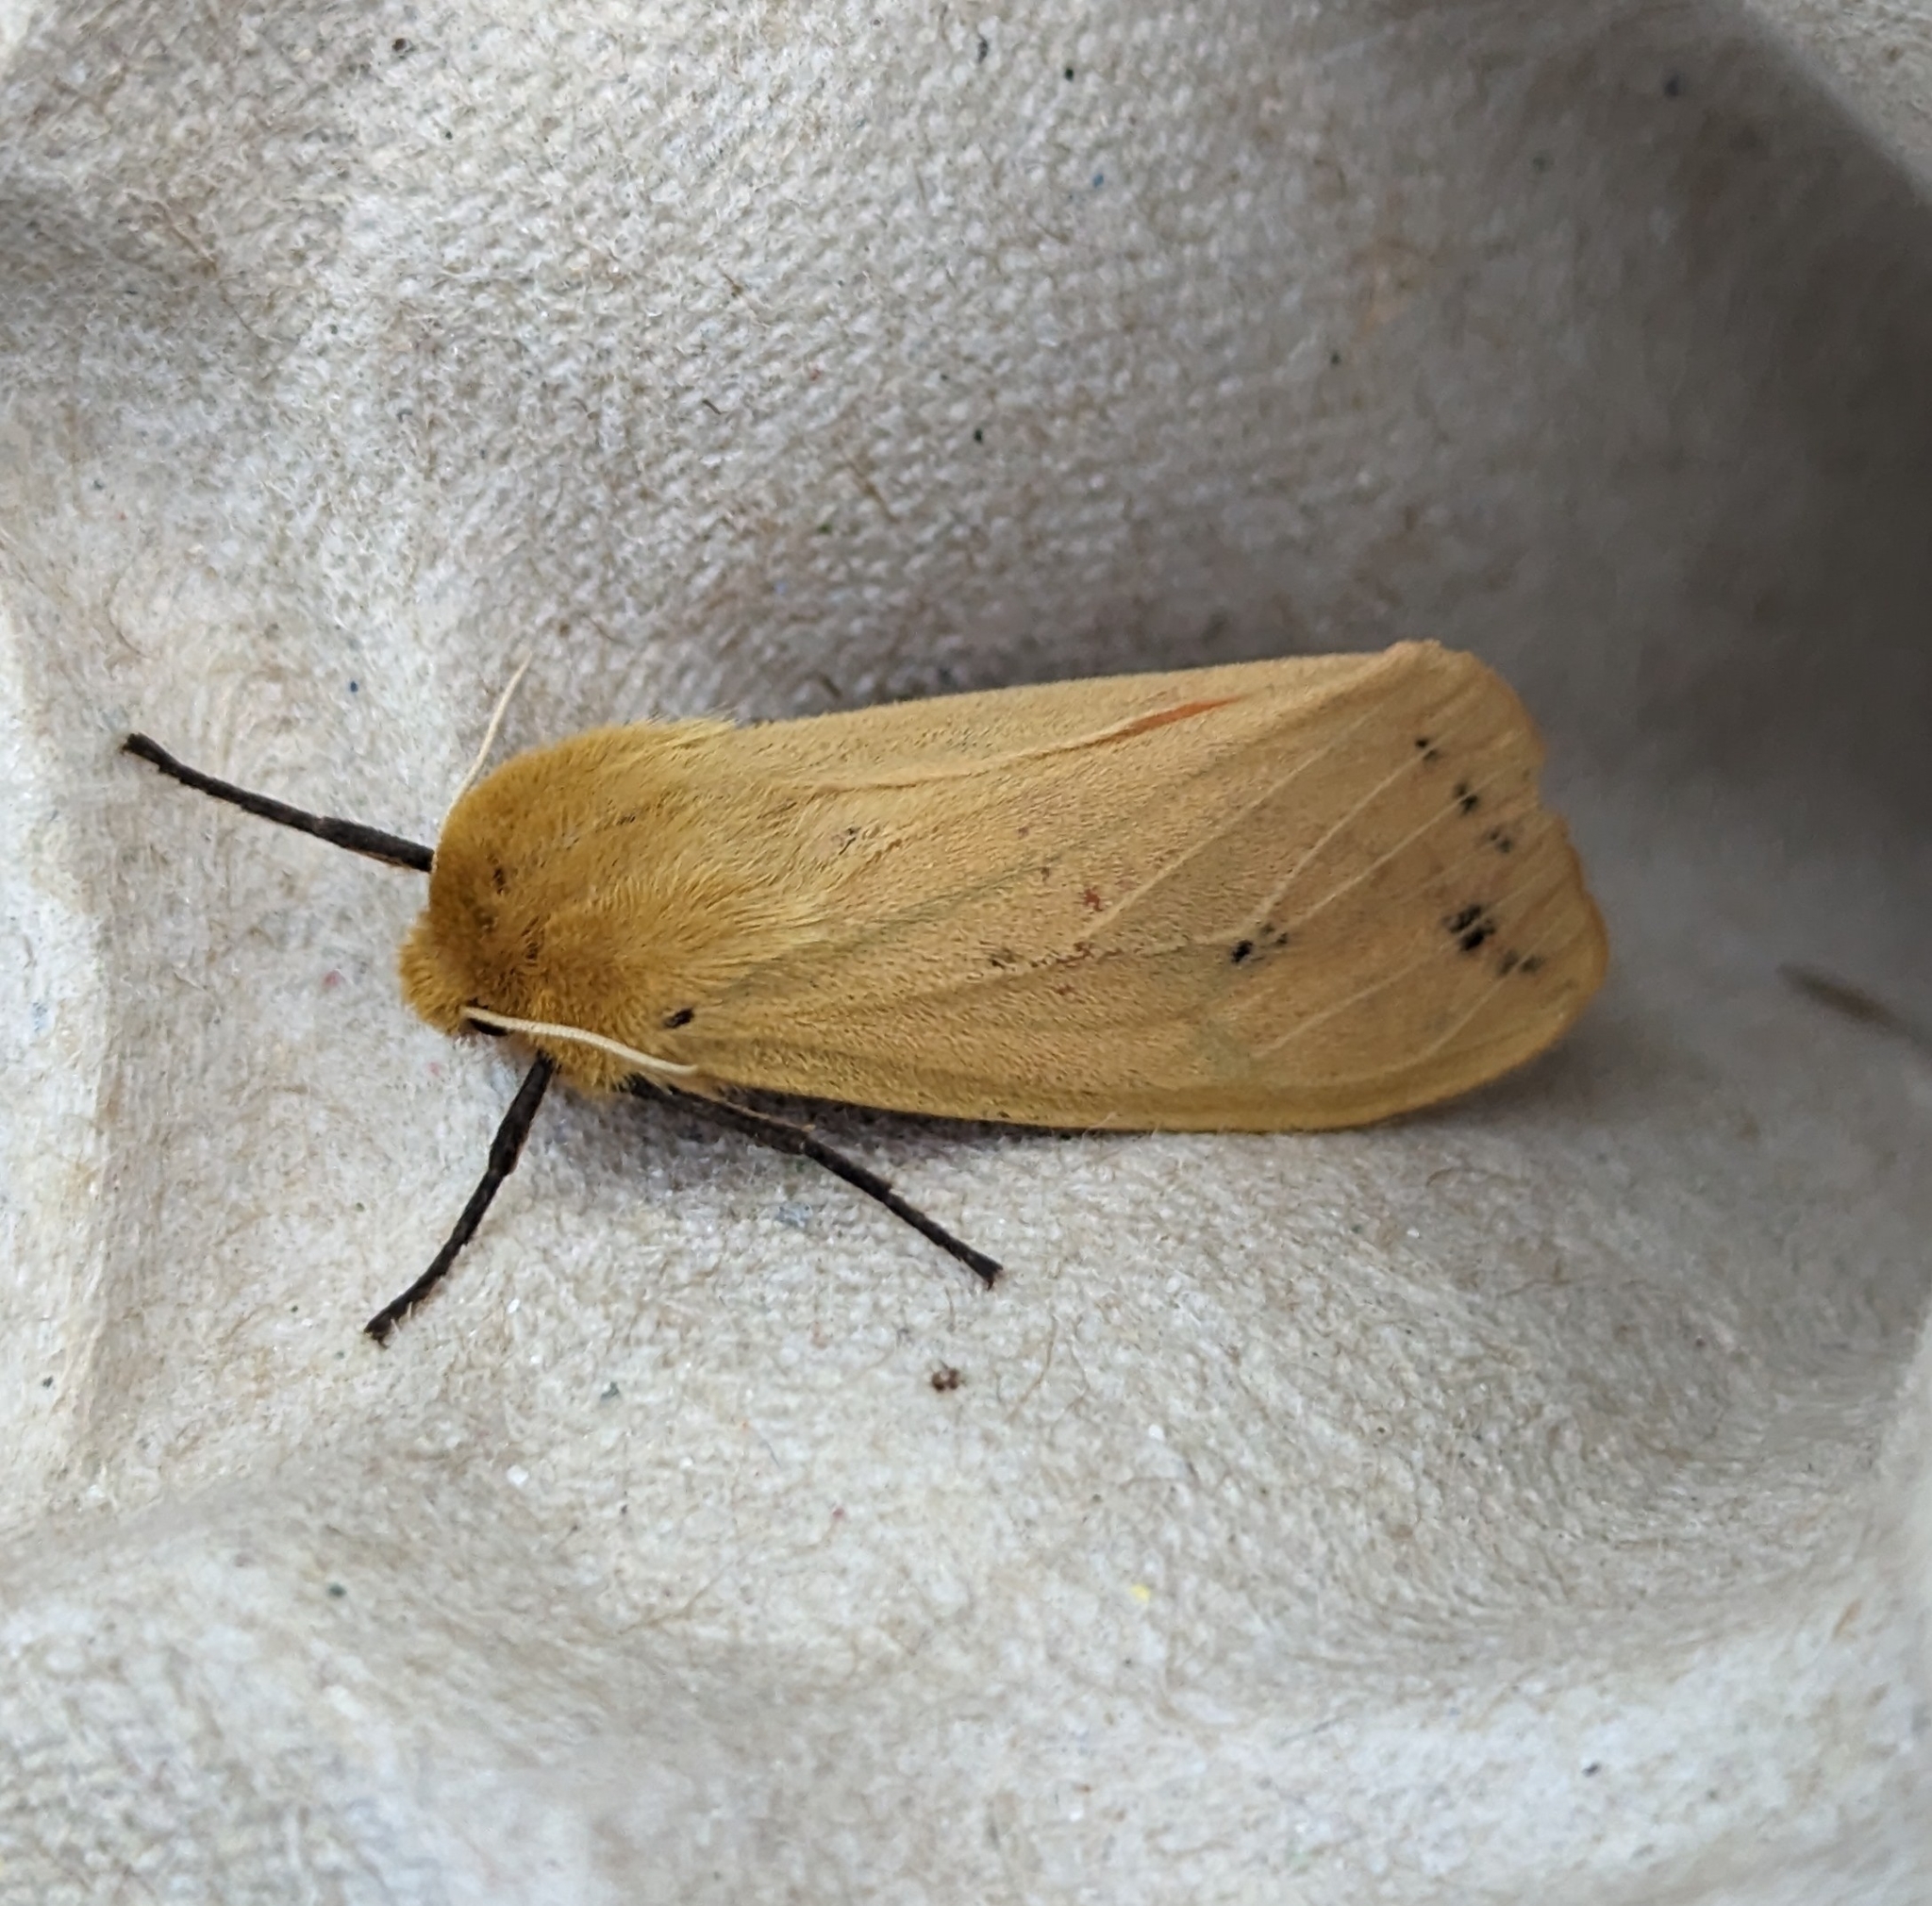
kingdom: Animalia
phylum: Arthropoda
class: Insecta
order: Lepidoptera
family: Erebidae
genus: Pyrrharctia
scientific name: Pyrrharctia isabella
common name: Isabella tiger moth
